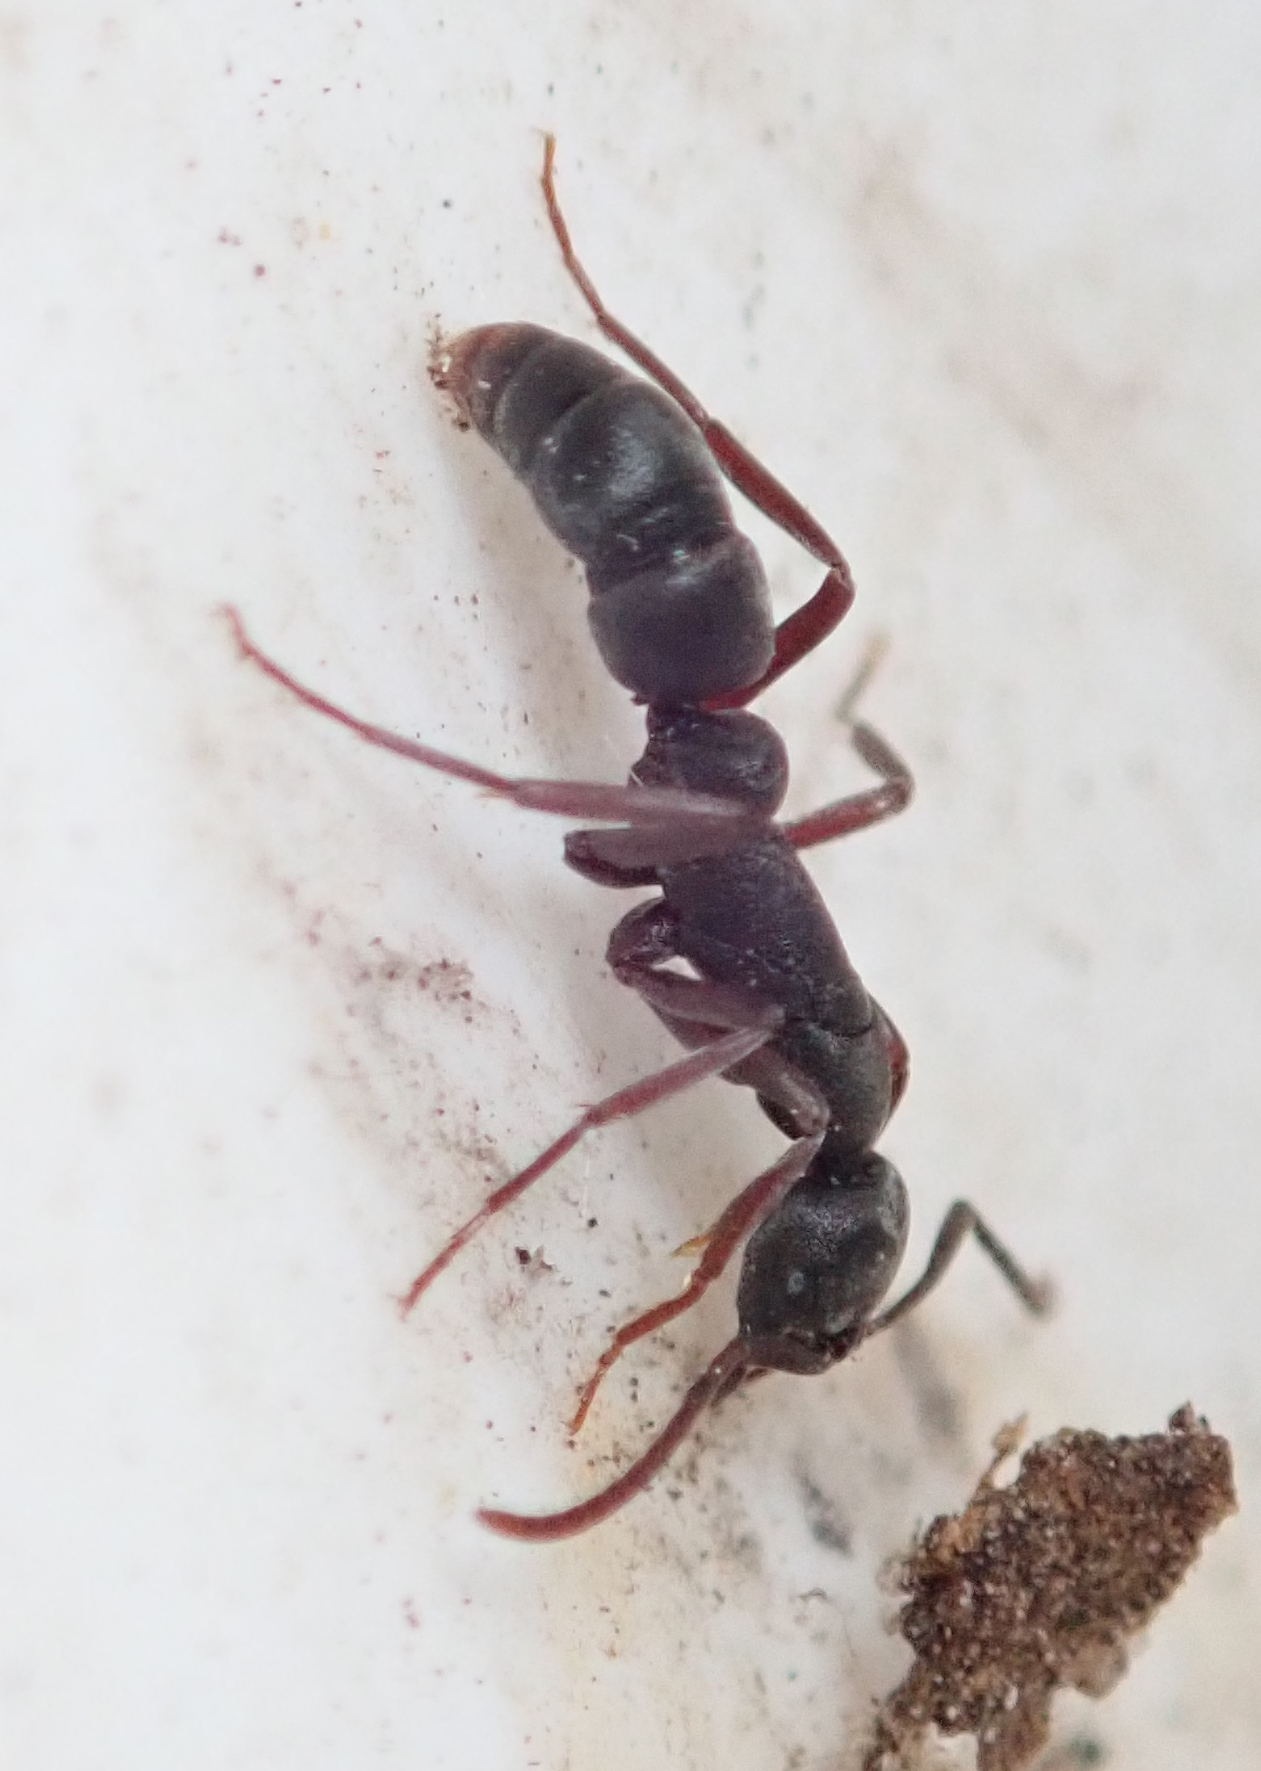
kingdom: Animalia
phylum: Arthropoda
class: Insecta
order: Hymenoptera
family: Formicidae
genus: Leptogenys
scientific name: Leptogenys maxillosa
